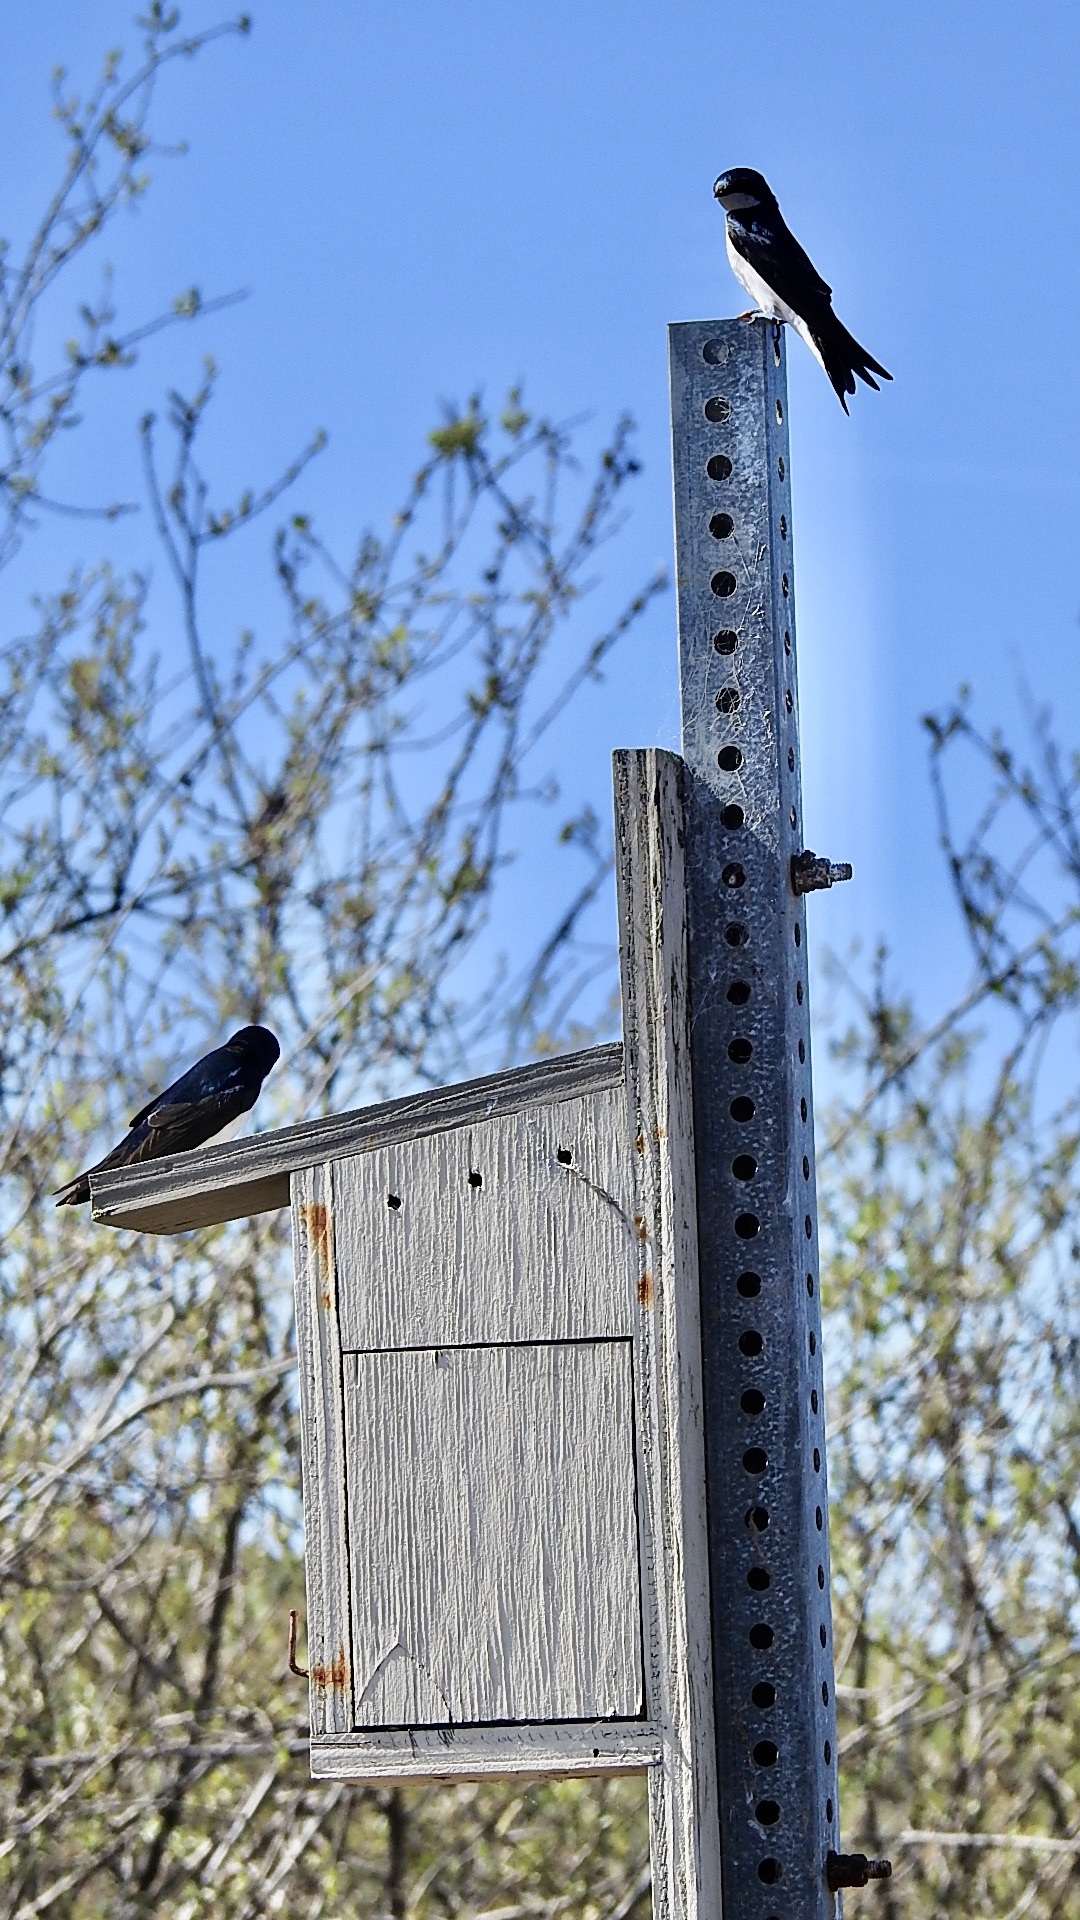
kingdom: Animalia
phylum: Chordata
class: Aves
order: Passeriformes
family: Hirundinidae
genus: Tachycineta
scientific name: Tachycineta bicolor
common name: Tree swallow
